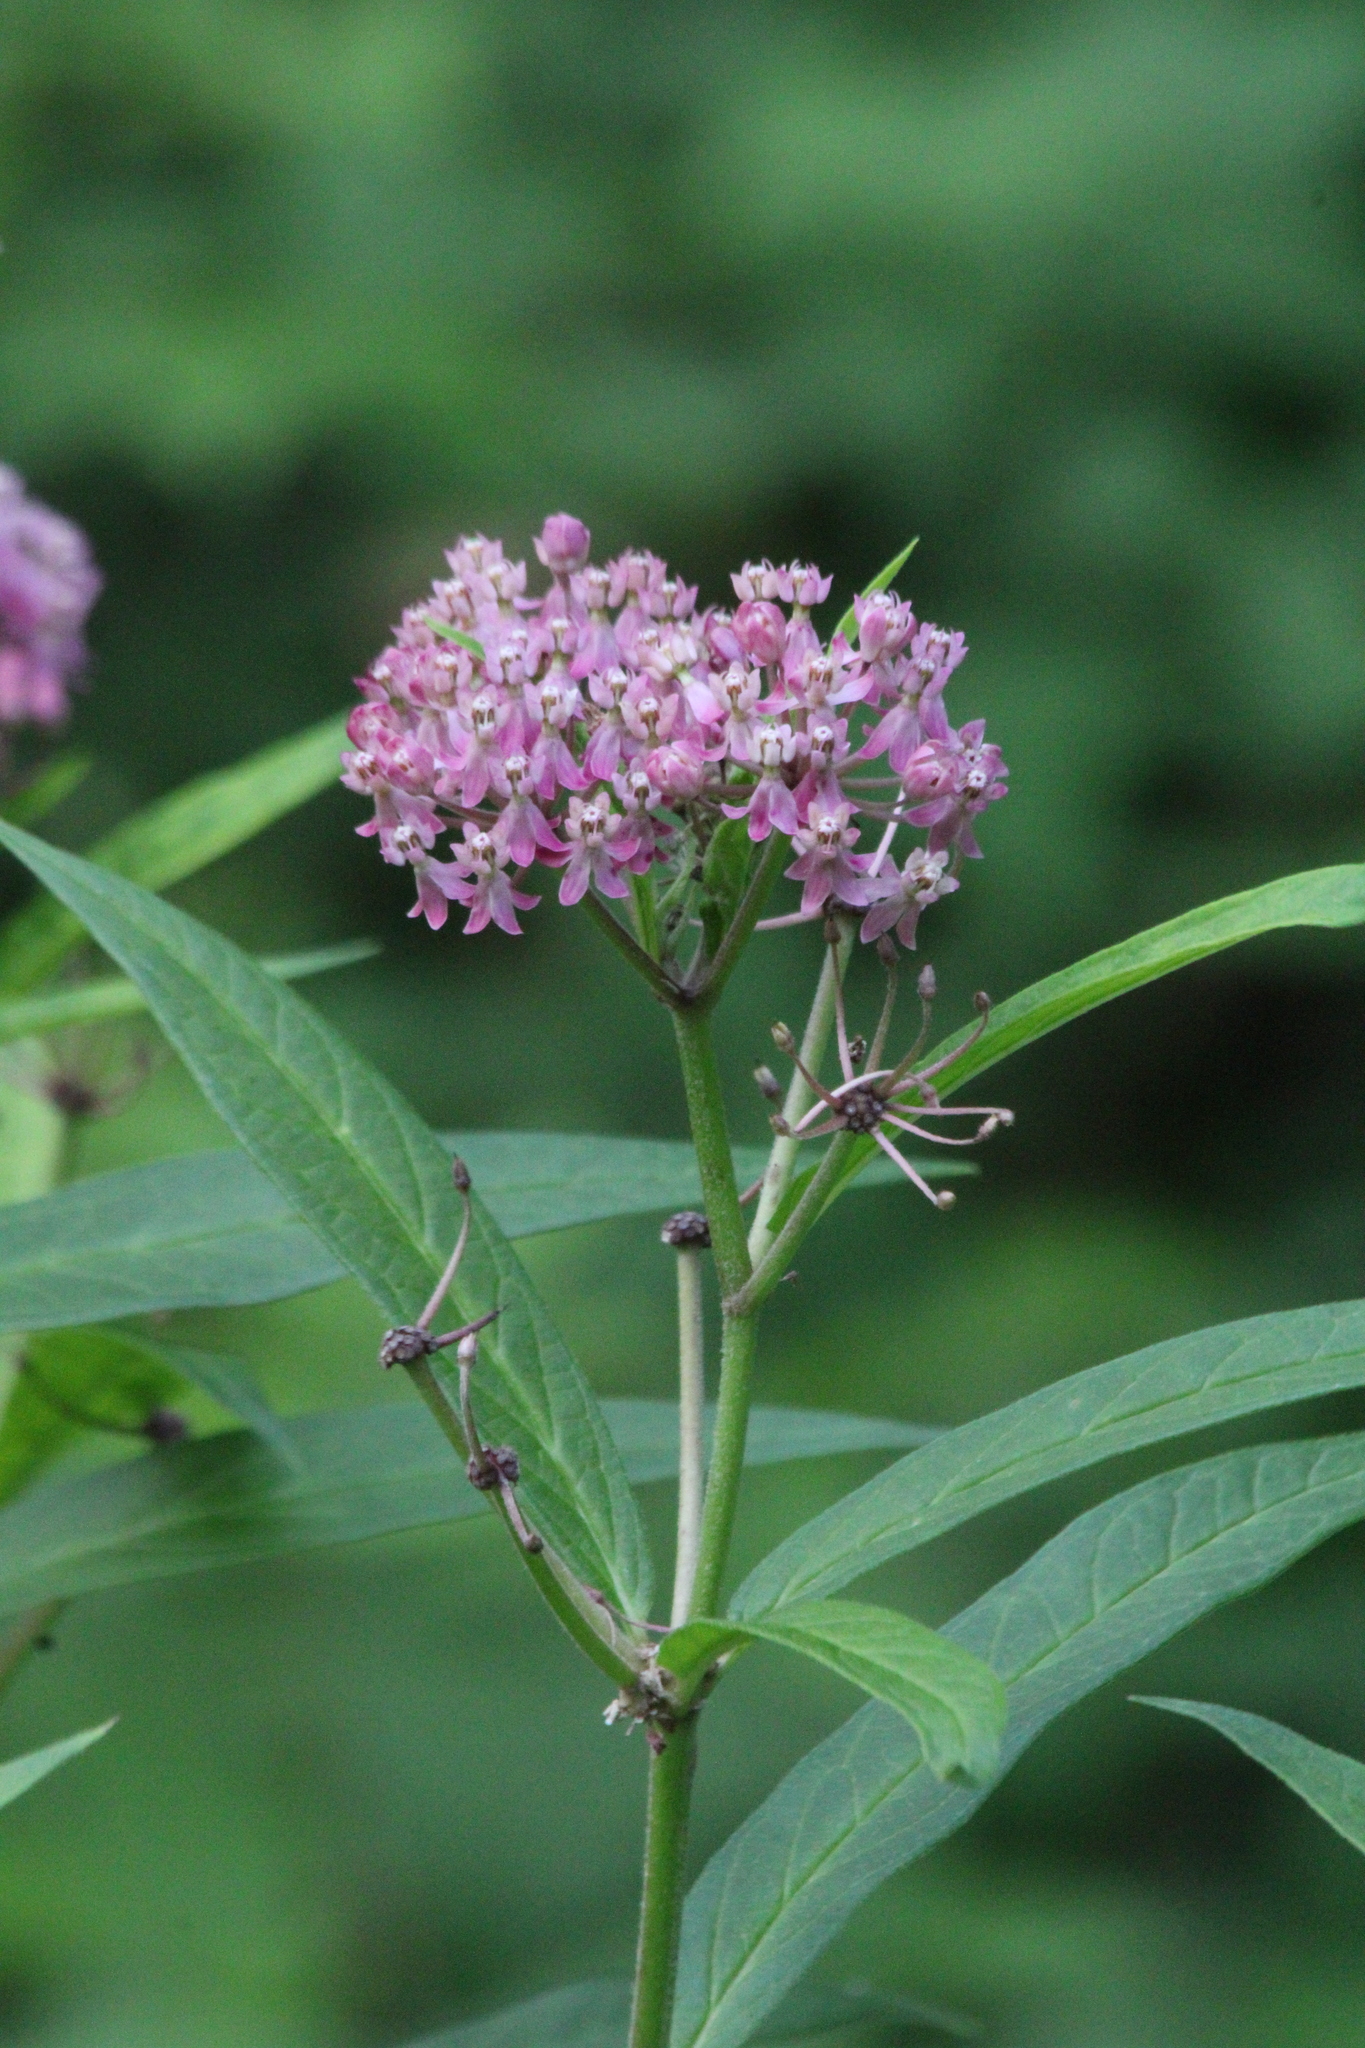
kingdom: Plantae
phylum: Tracheophyta
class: Magnoliopsida
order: Gentianales
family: Apocynaceae
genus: Asclepias
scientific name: Asclepias incarnata
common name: Swamp milkweed
